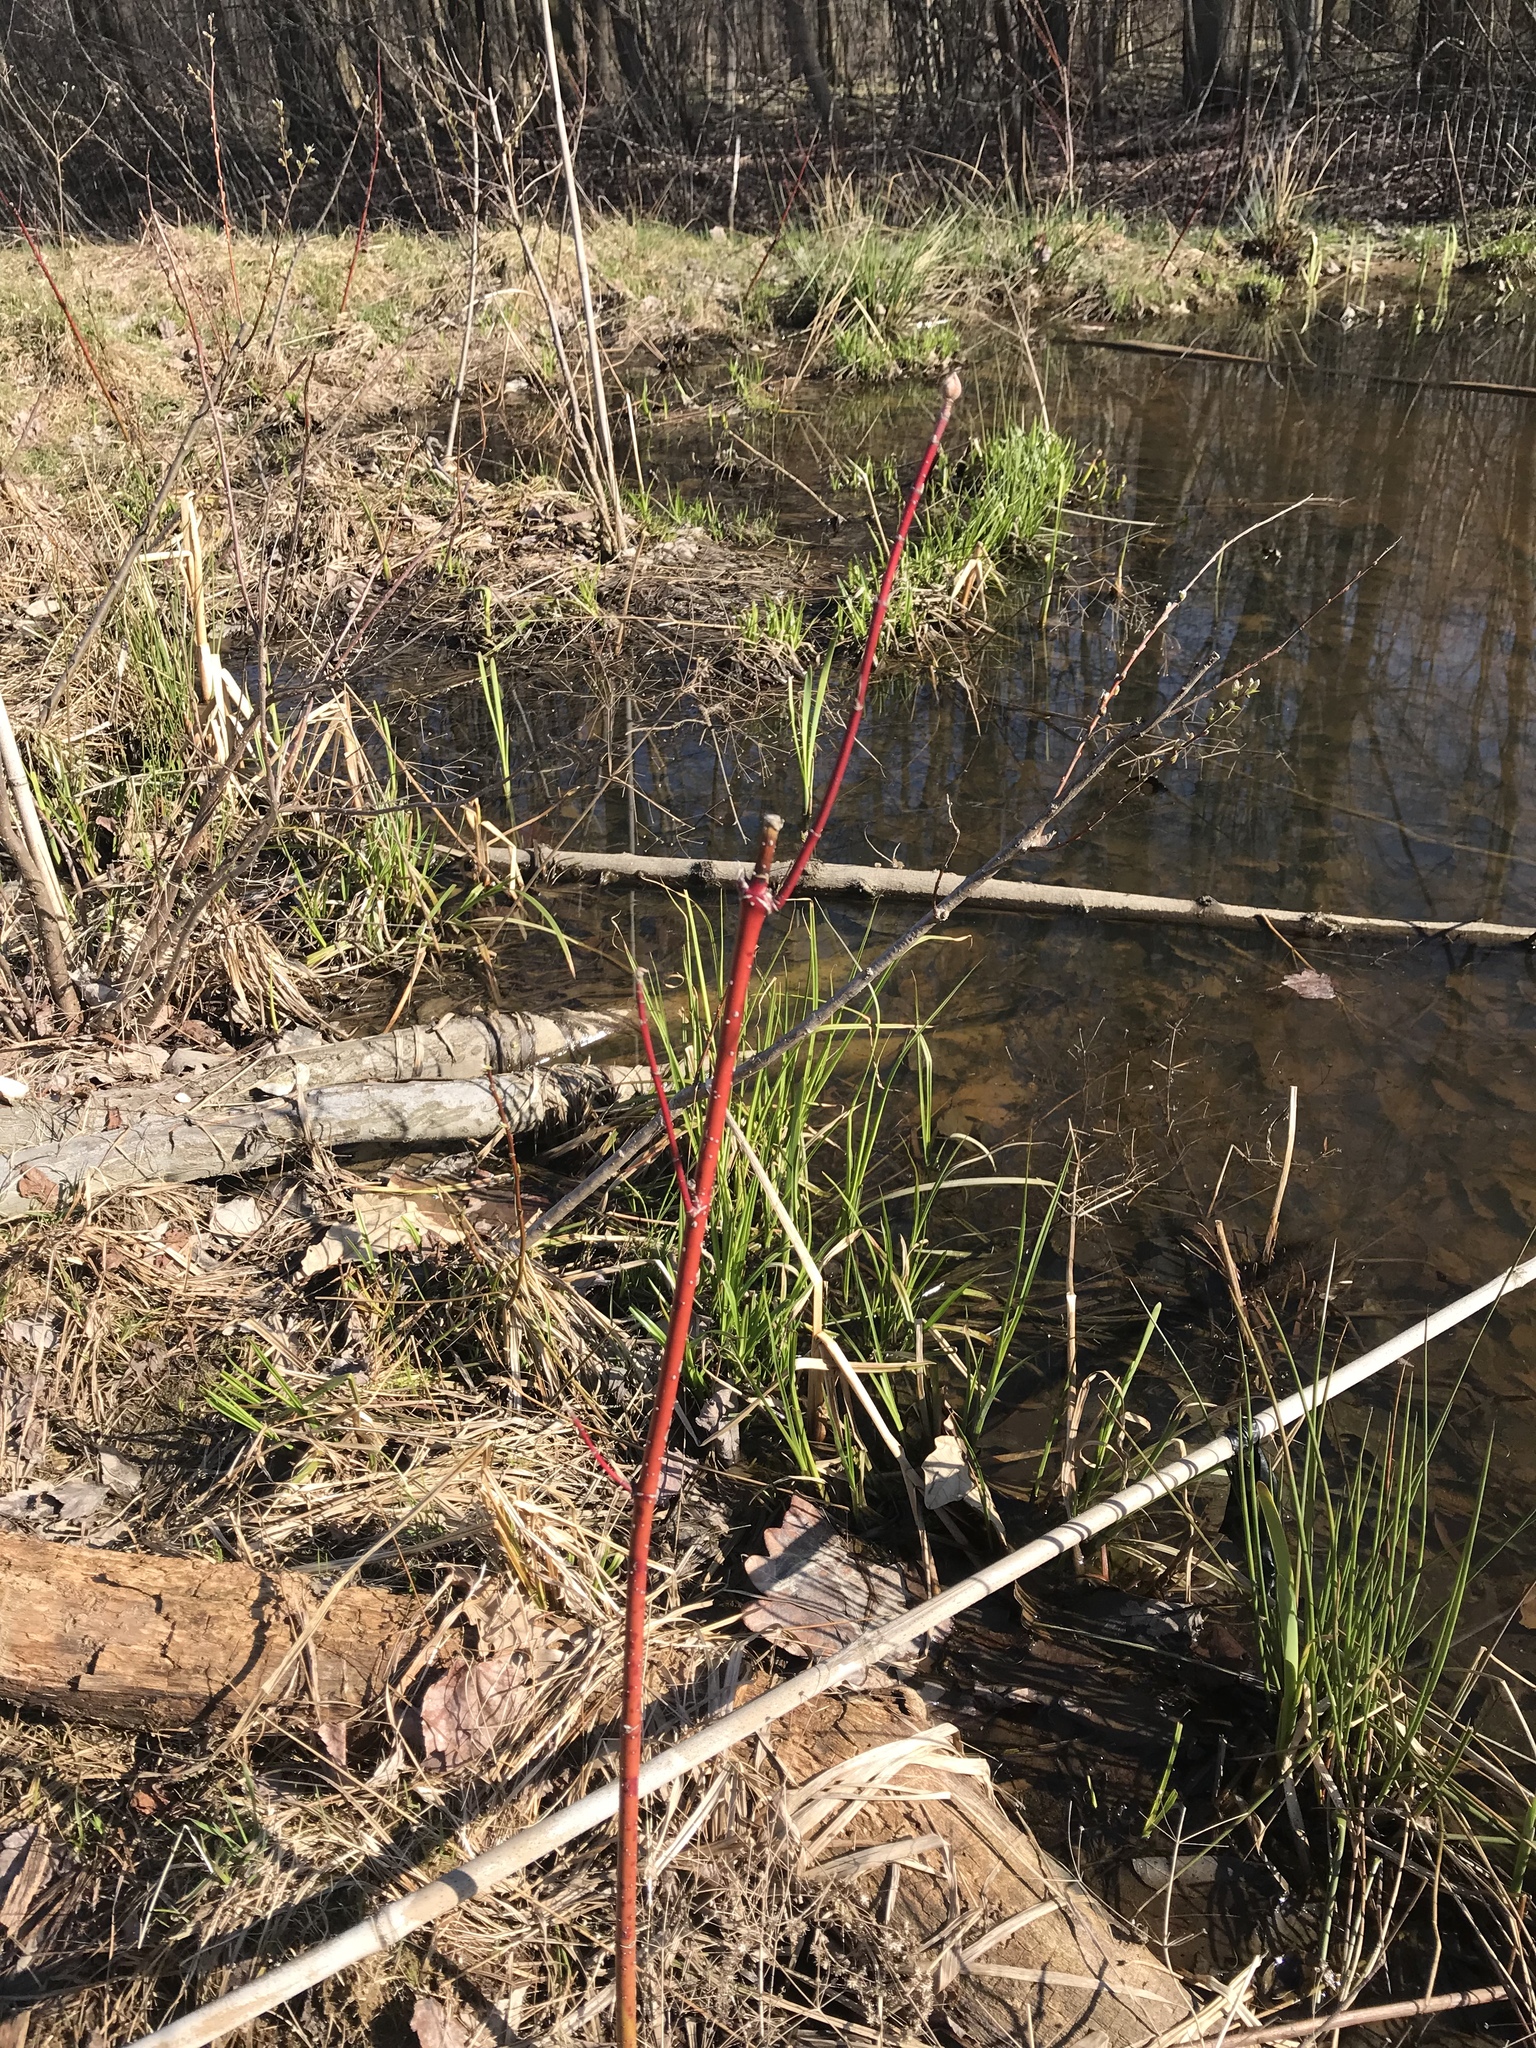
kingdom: Plantae
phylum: Tracheophyta
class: Magnoliopsida
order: Cornales
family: Cornaceae
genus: Cornus
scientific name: Cornus sericea
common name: Red-osier dogwood
